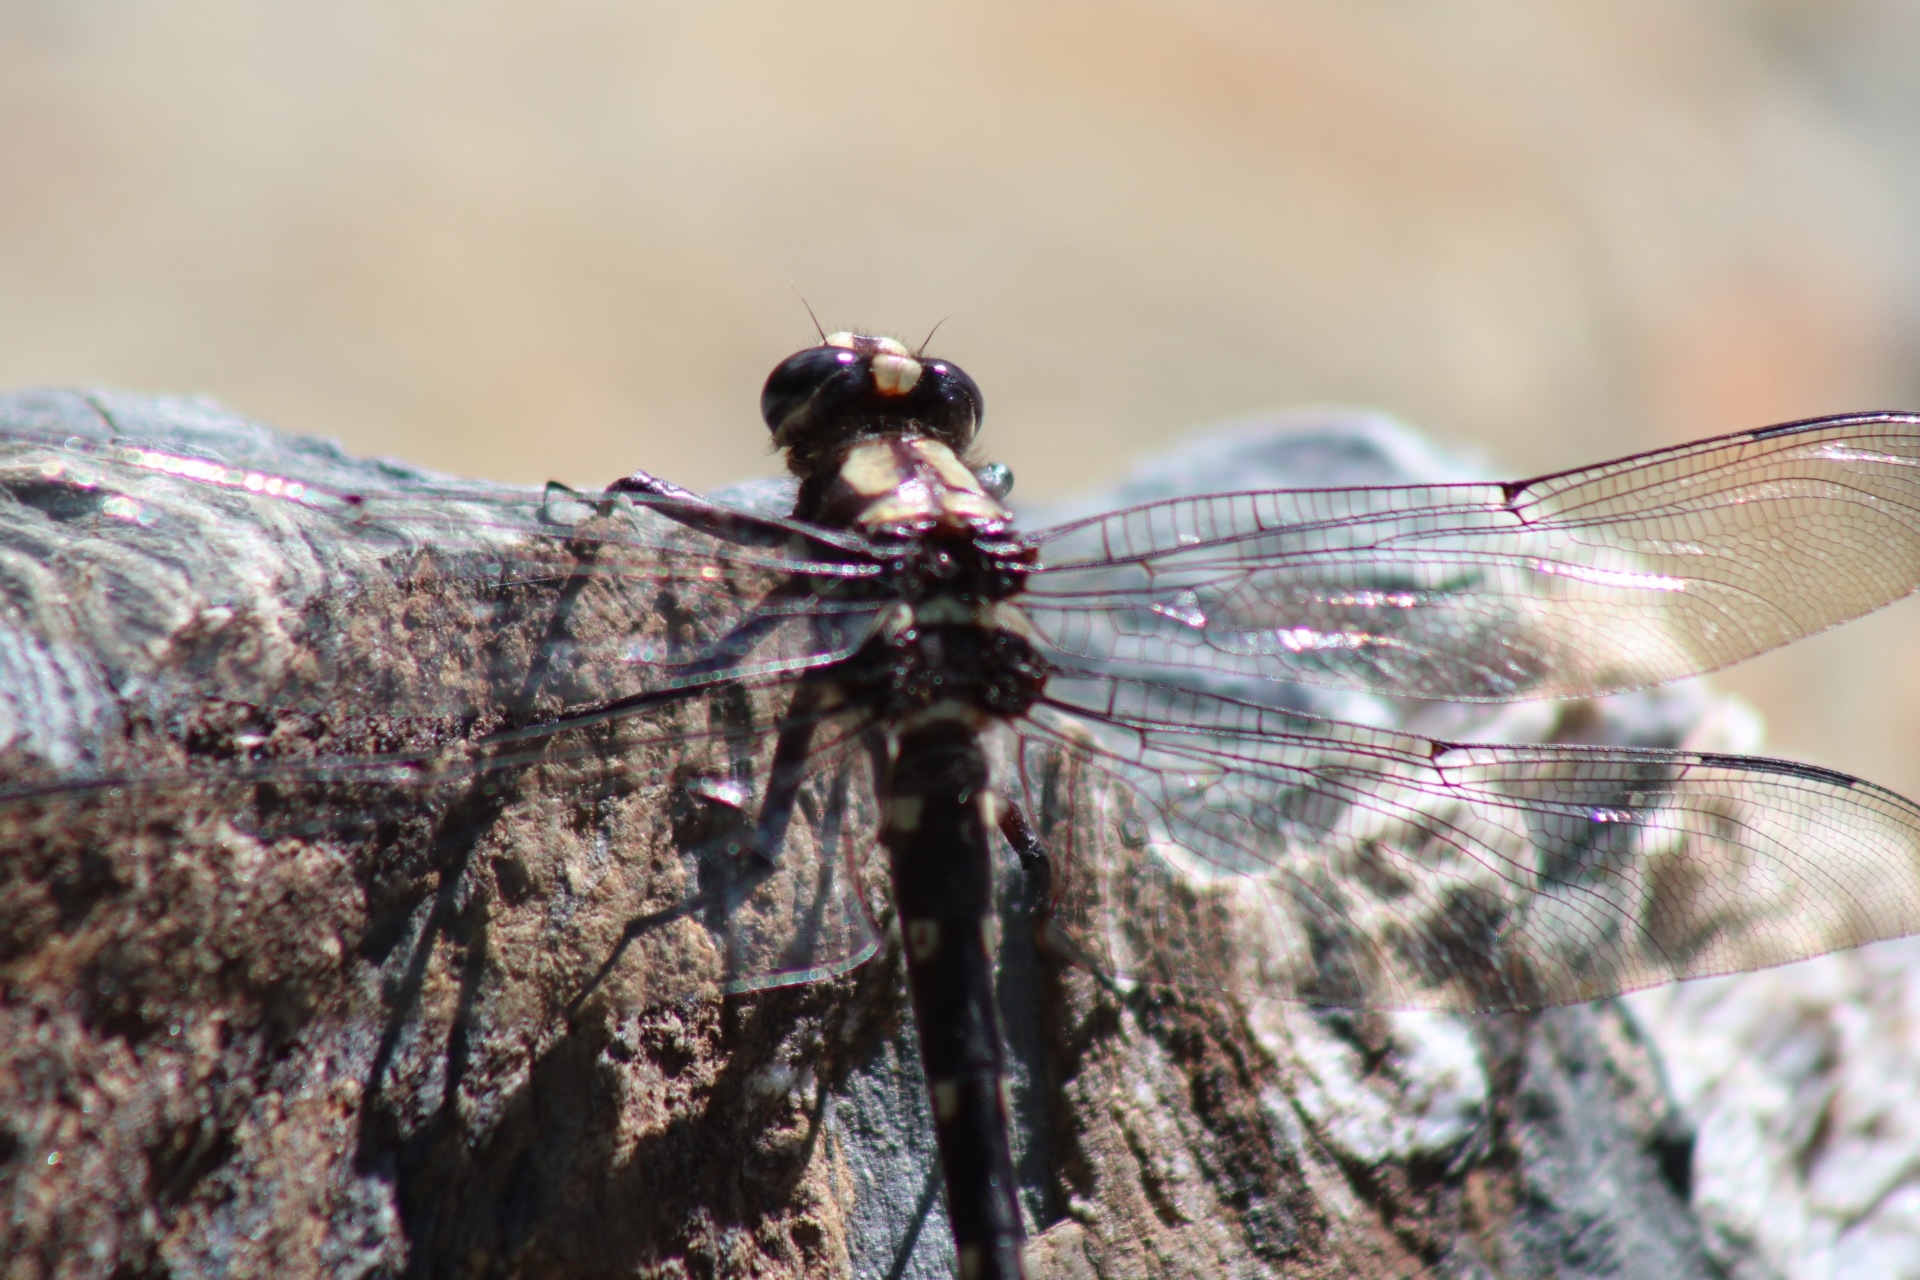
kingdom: Animalia
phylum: Arthropoda
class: Insecta
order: Odonata
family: Petaluridae
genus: Uropetala
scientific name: Uropetala carovei
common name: Bush giant dragonfly
